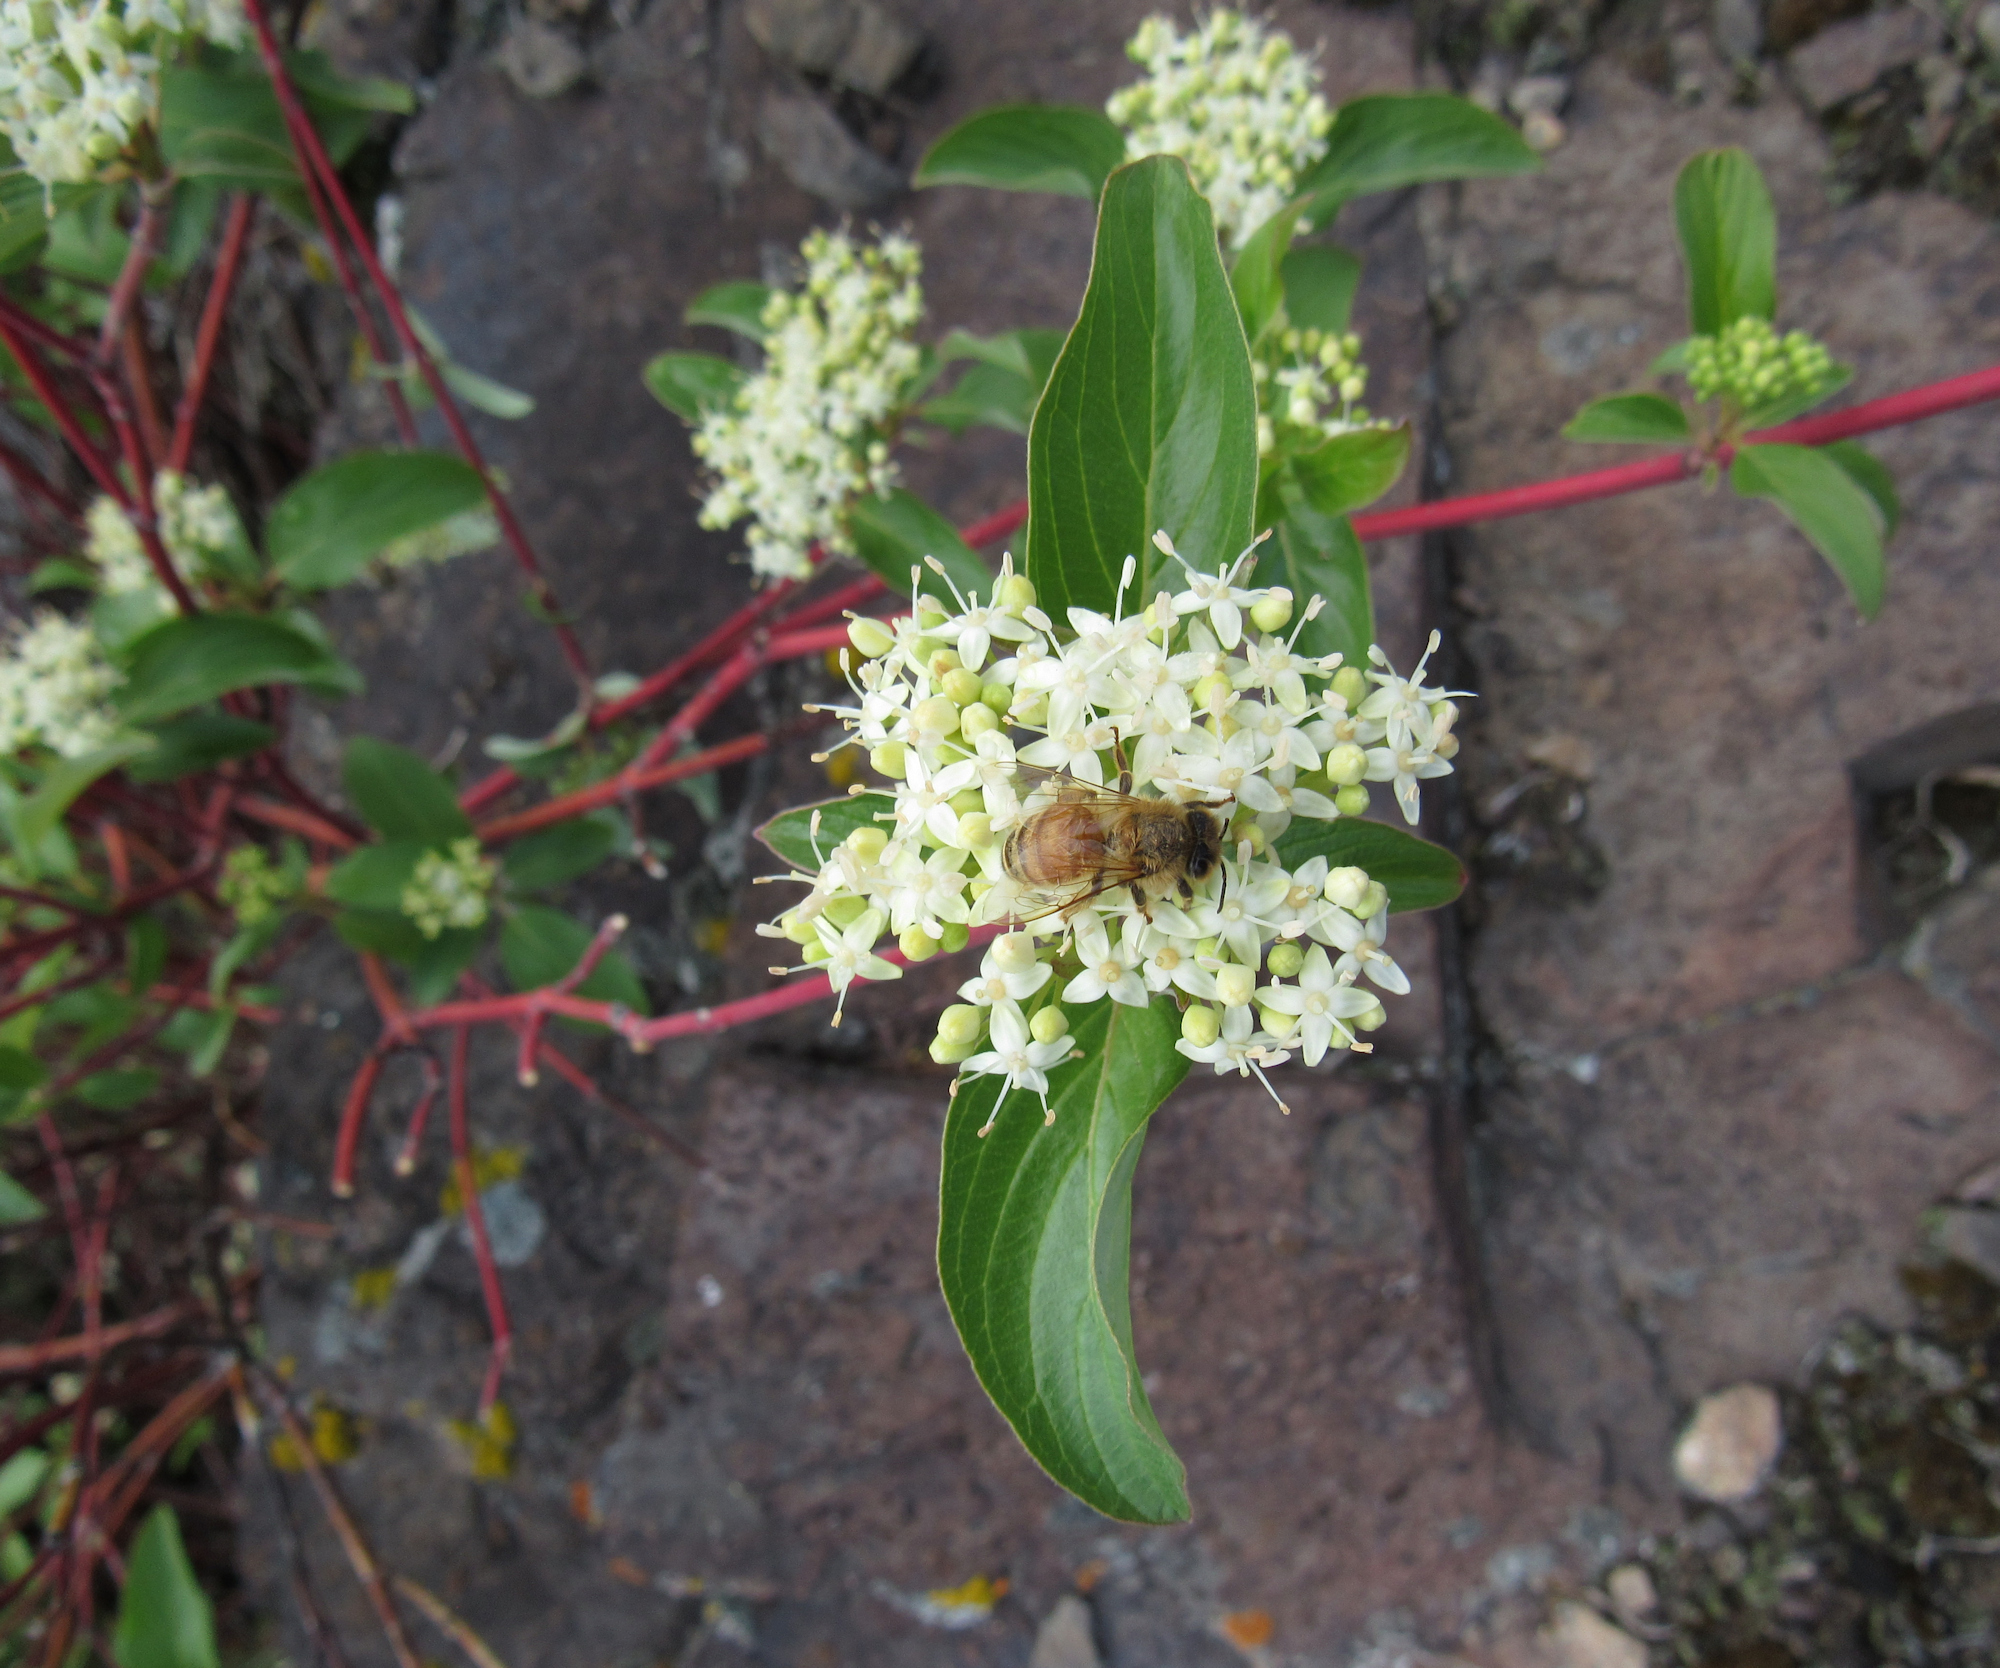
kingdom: Plantae
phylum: Tracheophyta
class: Magnoliopsida
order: Cornales
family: Cornaceae
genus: Cornus
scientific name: Cornus sericea
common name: Red-osier dogwood
